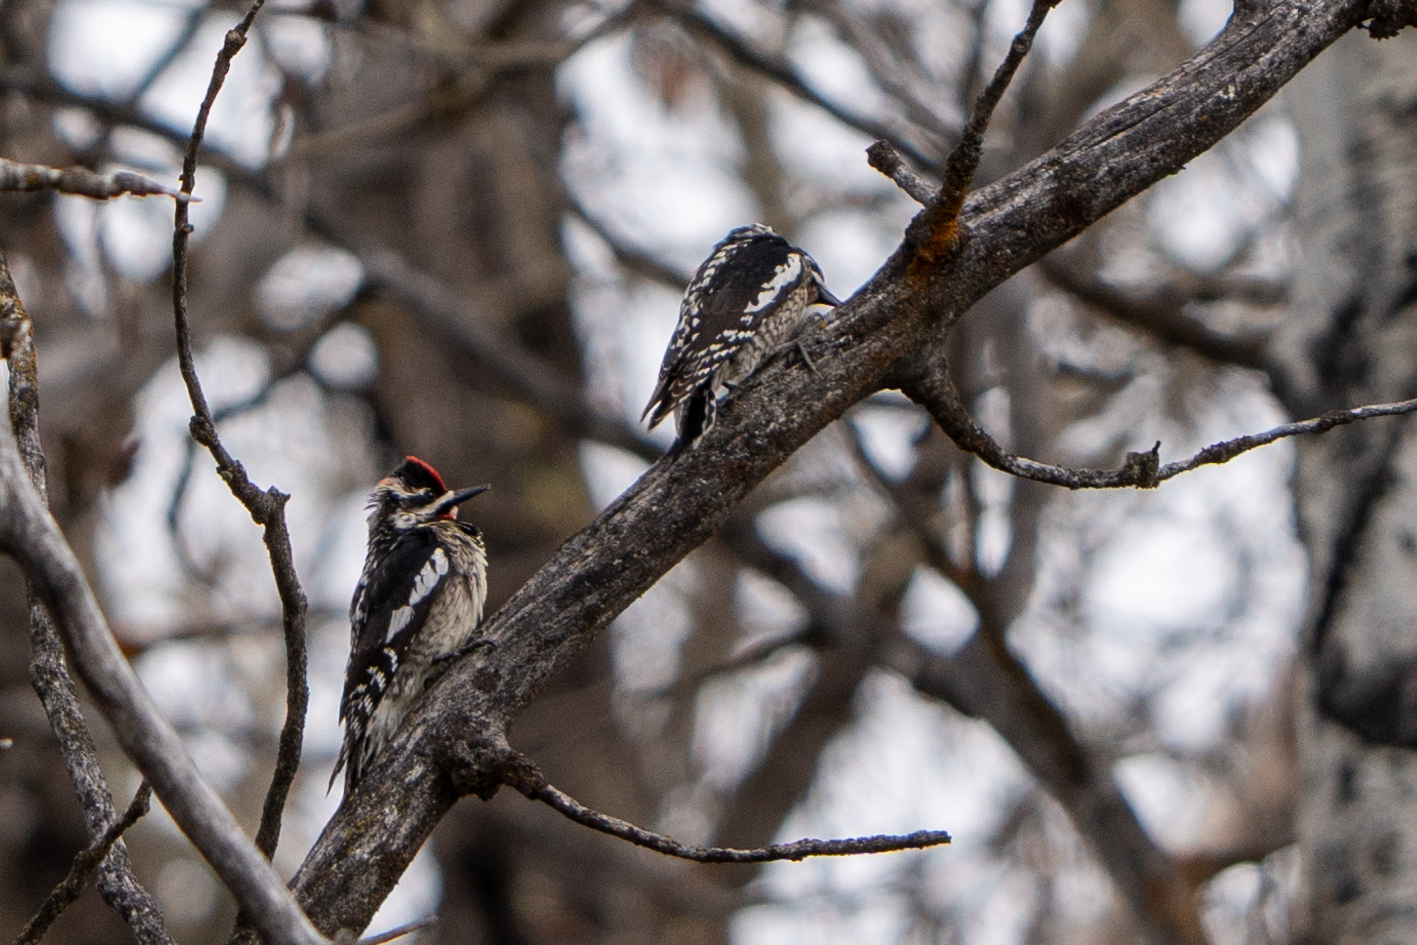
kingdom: Animalia
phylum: Chordata
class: Aves
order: Piciformes
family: Picidae
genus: Sphyrapicus
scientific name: Sphyrapicus nuchalis
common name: Red-naped sapsucker
